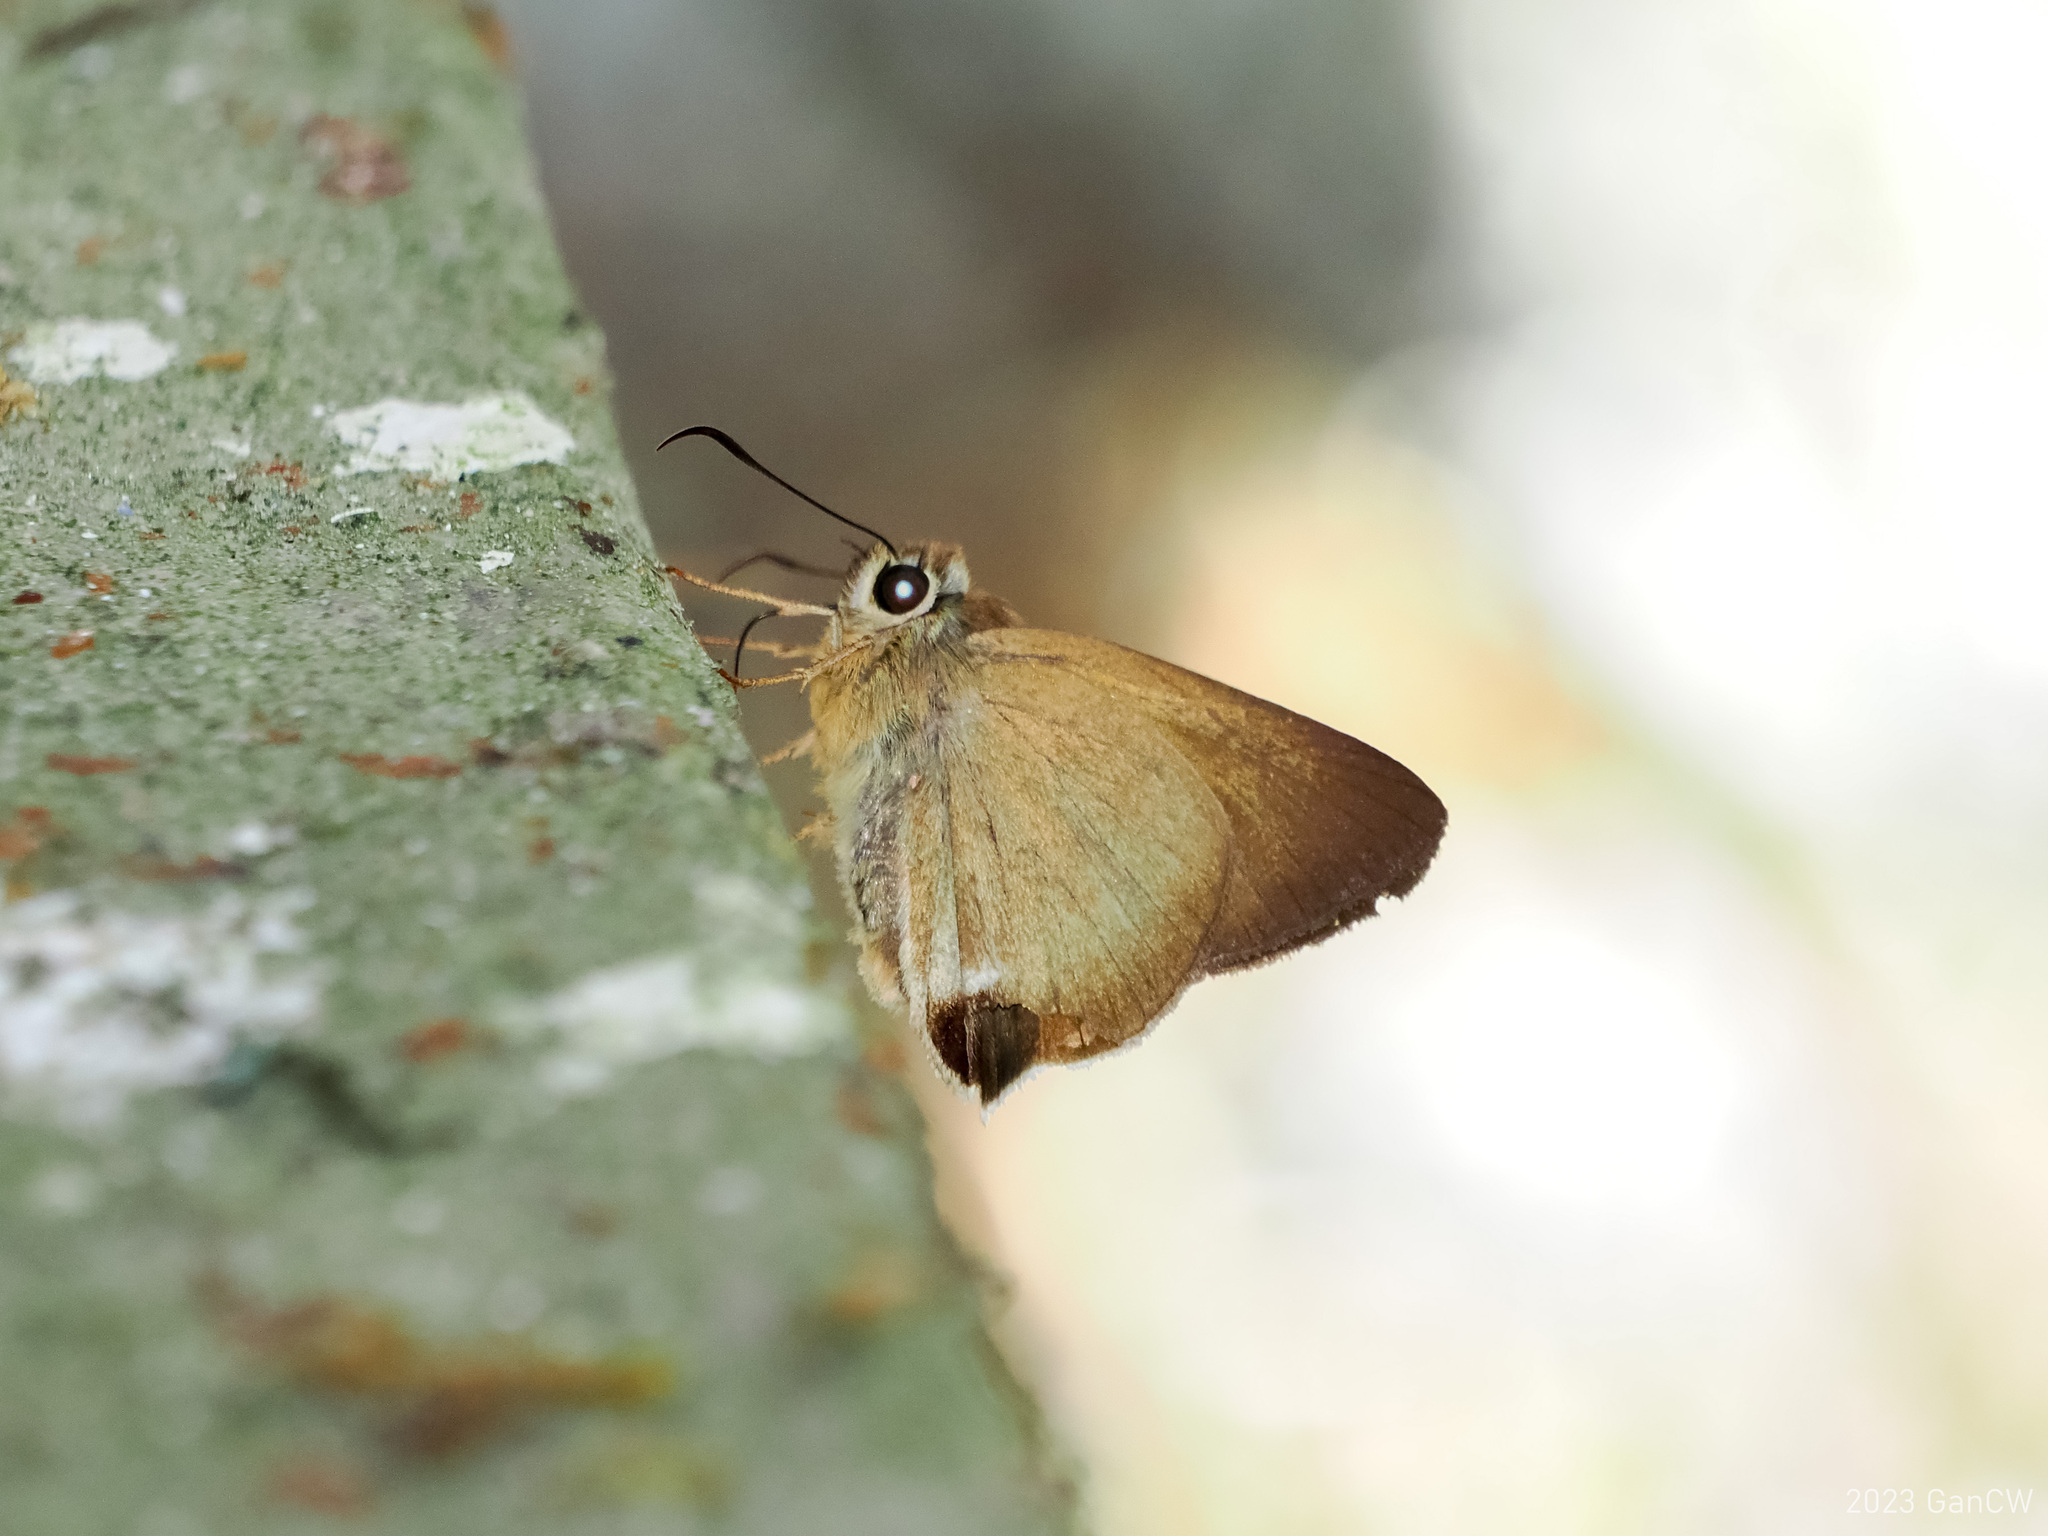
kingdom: Animalia
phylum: Arthropoda
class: Insecta
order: Lepidoptera
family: Hesperiidae
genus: Hasora
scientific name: Hasora mus
